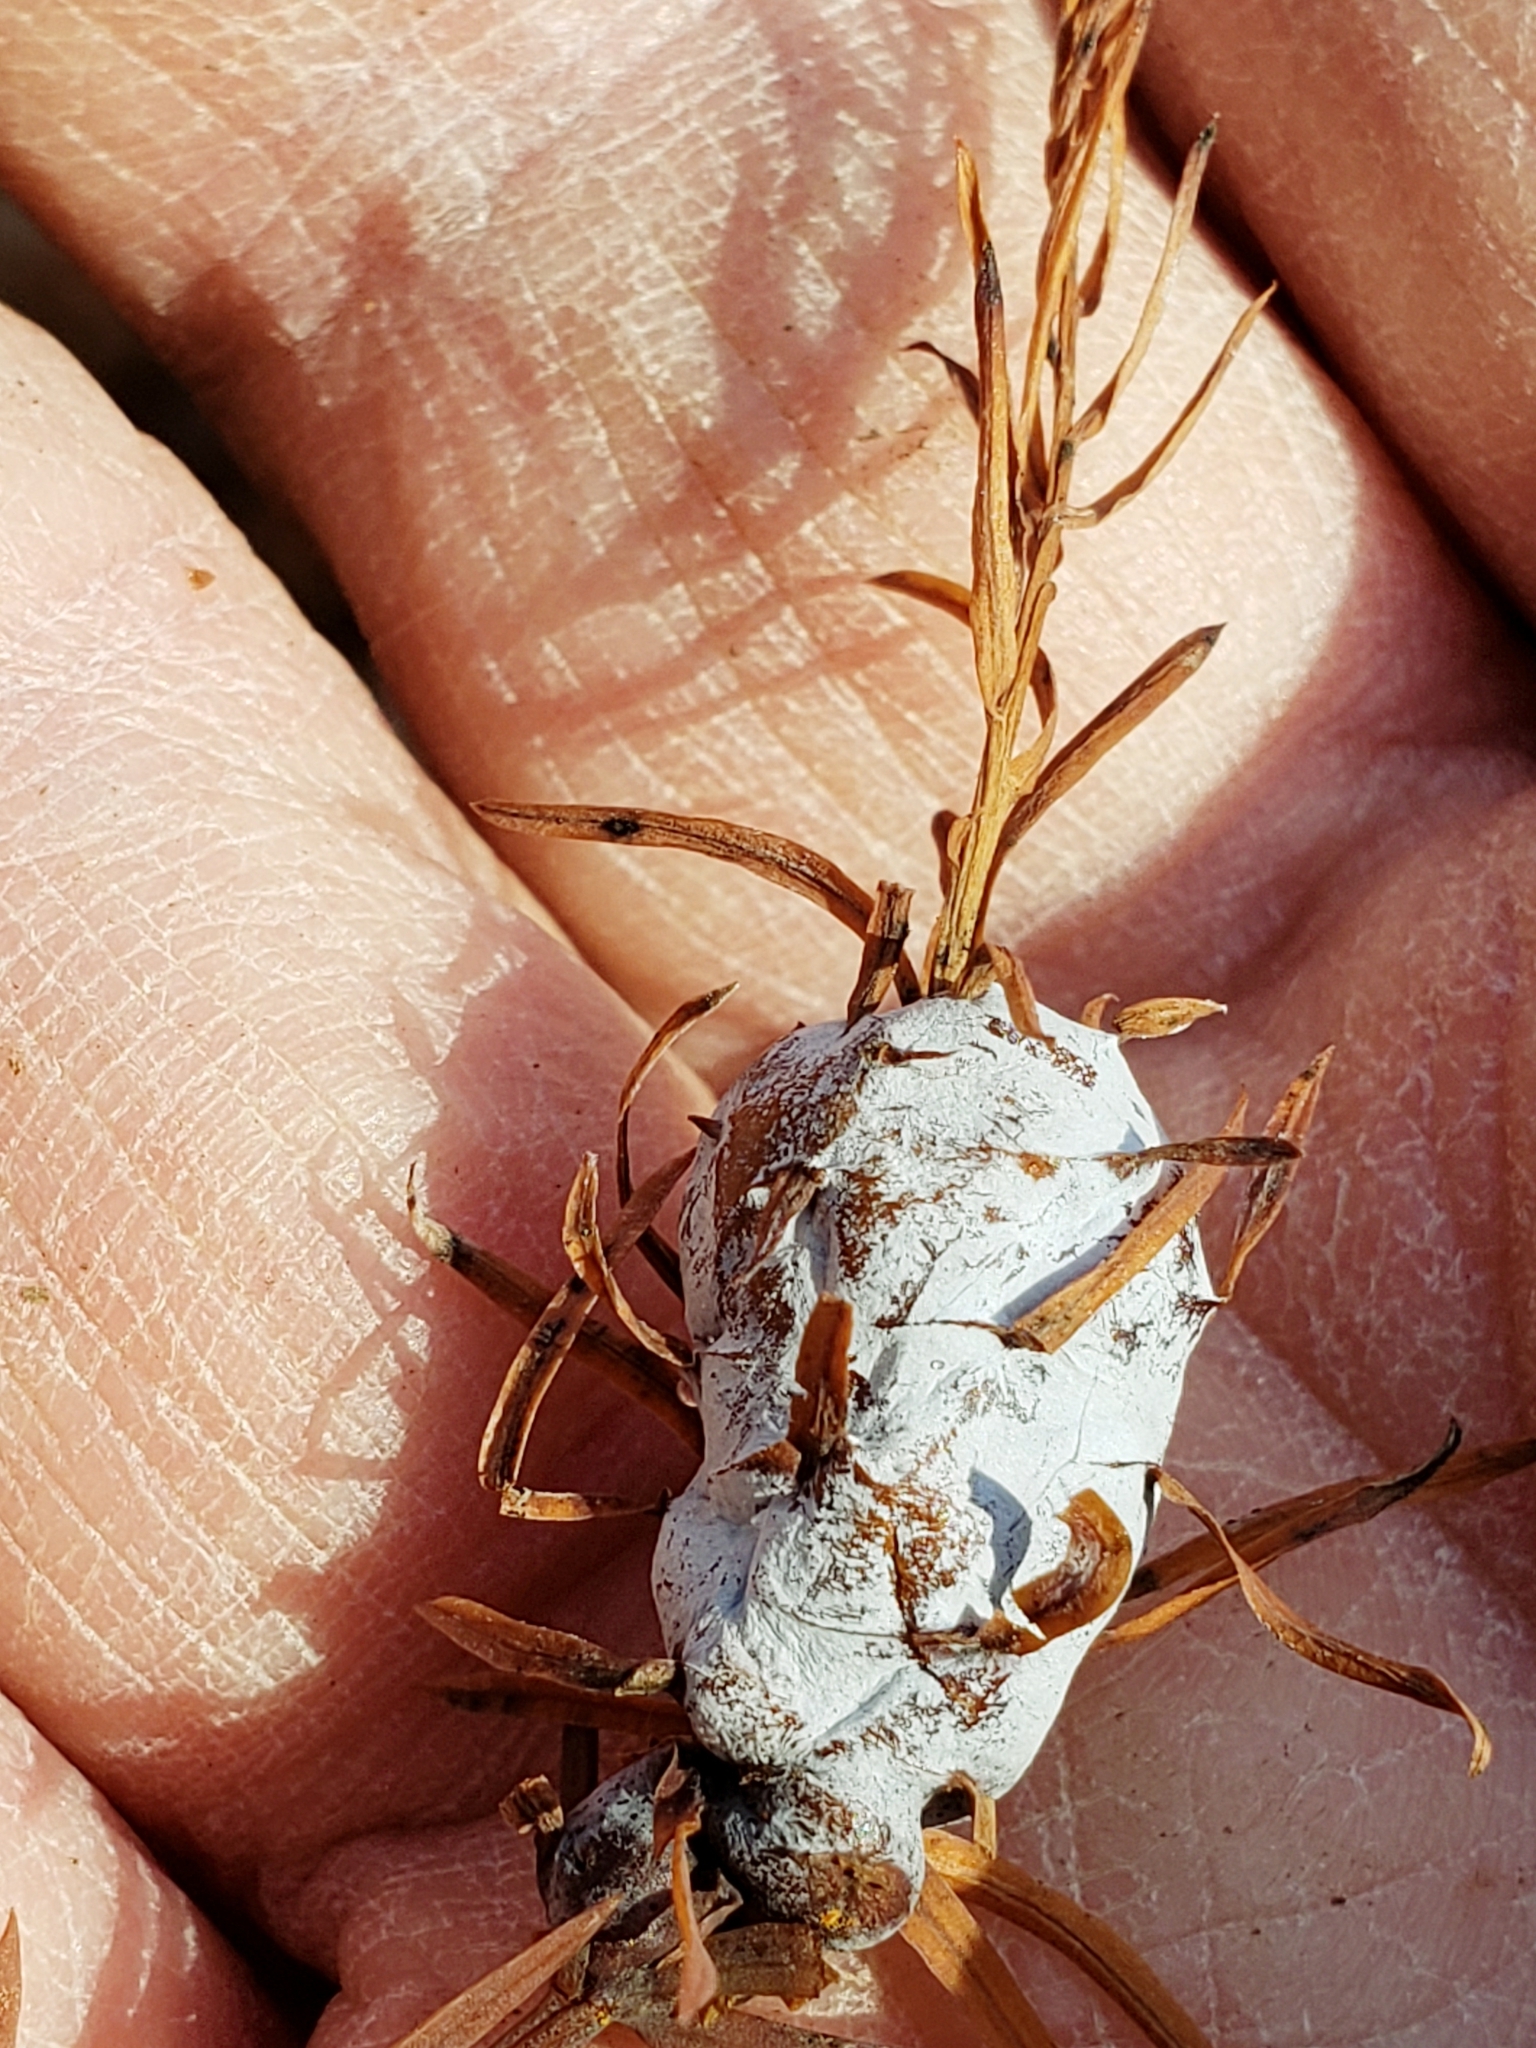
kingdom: Animalia
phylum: Arthropoda
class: Insecta
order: Diptera
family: Cecidomyiidae
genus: Taxodiomyia
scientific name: Taxodiomyia cupressiananassa
